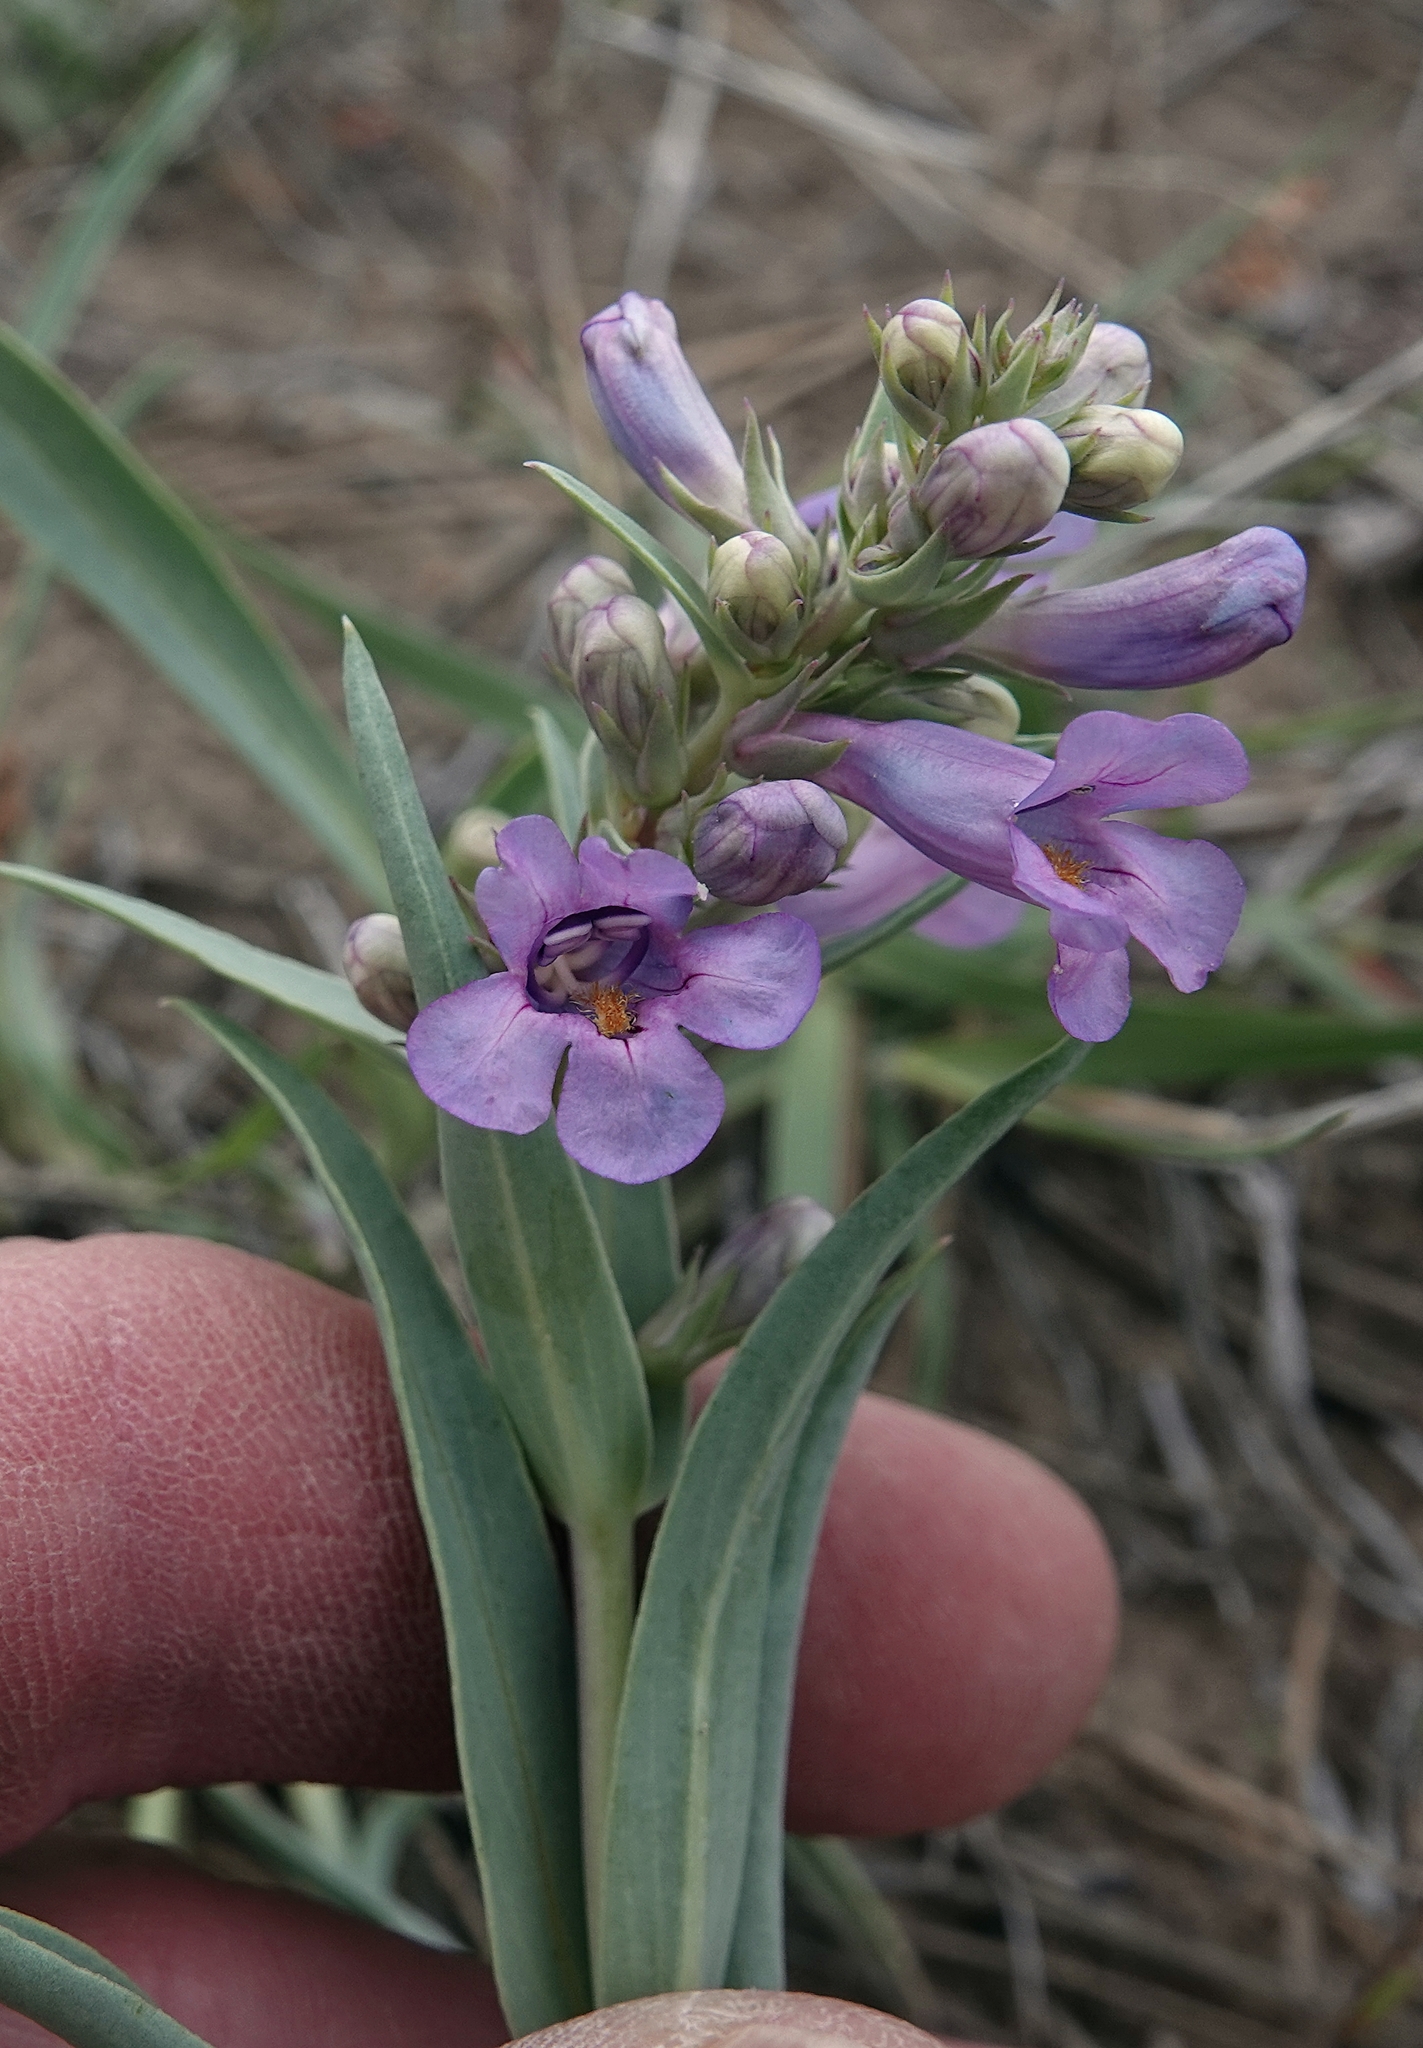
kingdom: Plantae
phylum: Tracheophyta
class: Magnoliopsida
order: Lamiales
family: Plantaginaceae
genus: Penstemon
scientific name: Penstemon angustifolius
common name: Narrow beardtongue
